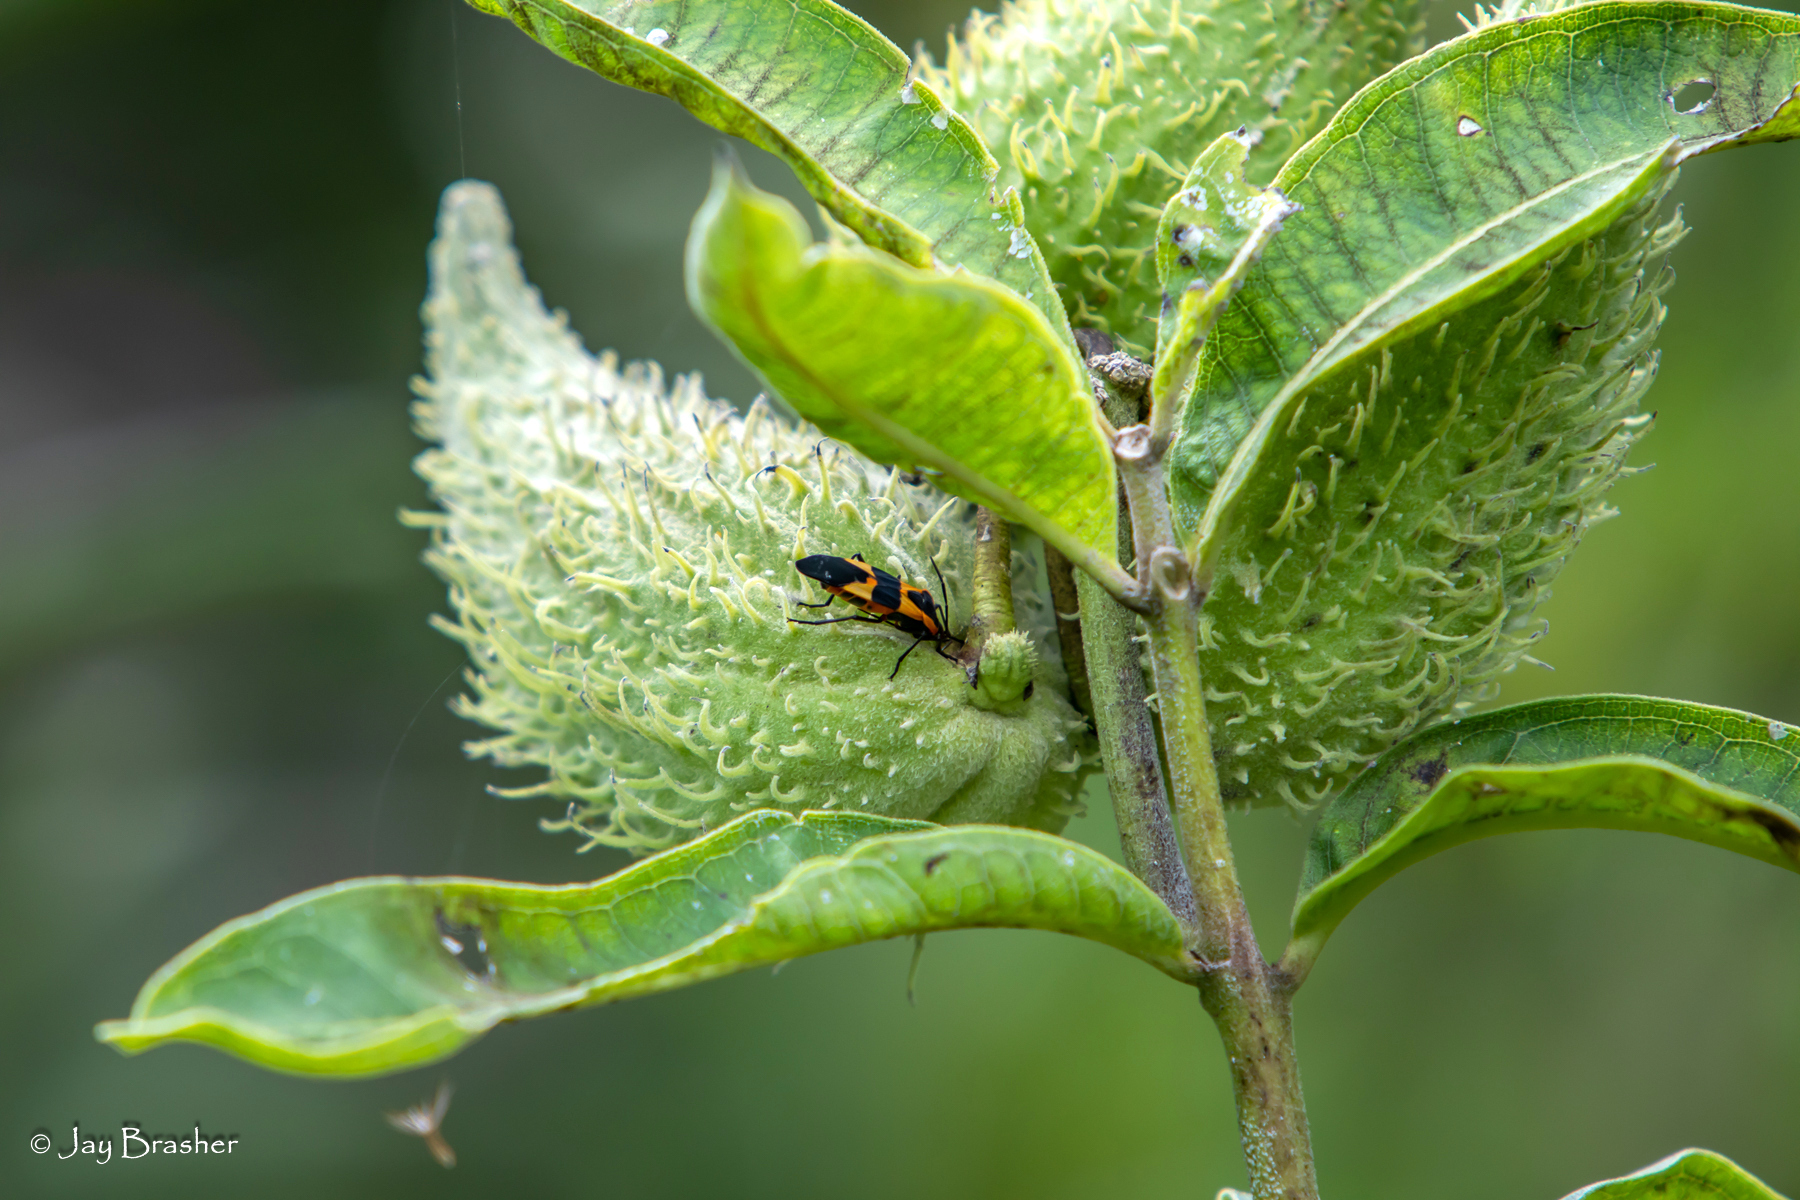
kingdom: Animalia
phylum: Arthropoda
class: Insecta
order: Hemiptera
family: Lygaeidae
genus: Oncopeltus
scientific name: Oncopeltus fasciatus
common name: Large milkweed bug
